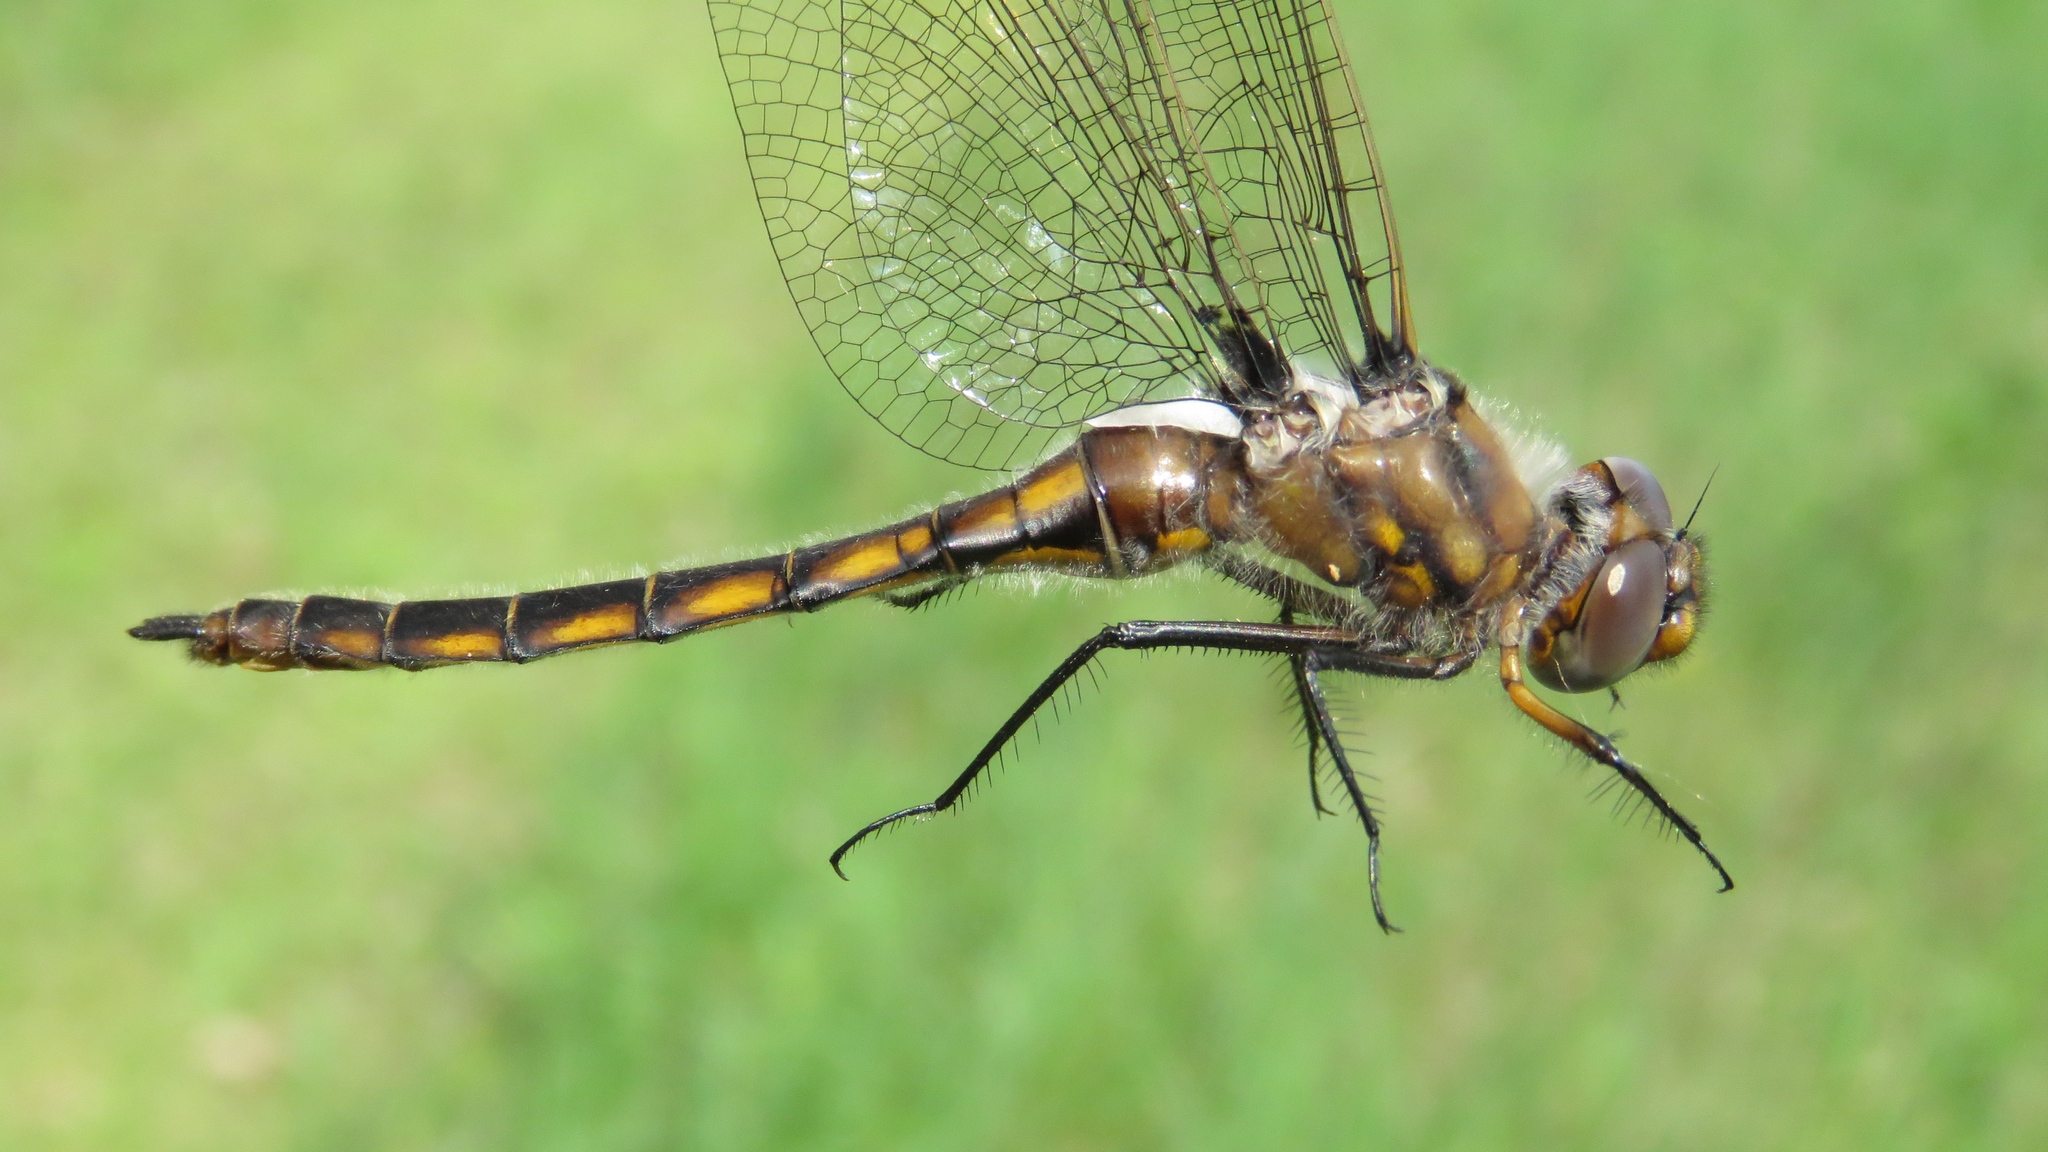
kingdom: Animalia
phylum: Arthropoda
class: Insecta
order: Odonata
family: Corduliidae
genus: Epitheca
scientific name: Epitheca canis
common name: Beaverpond baskettail
